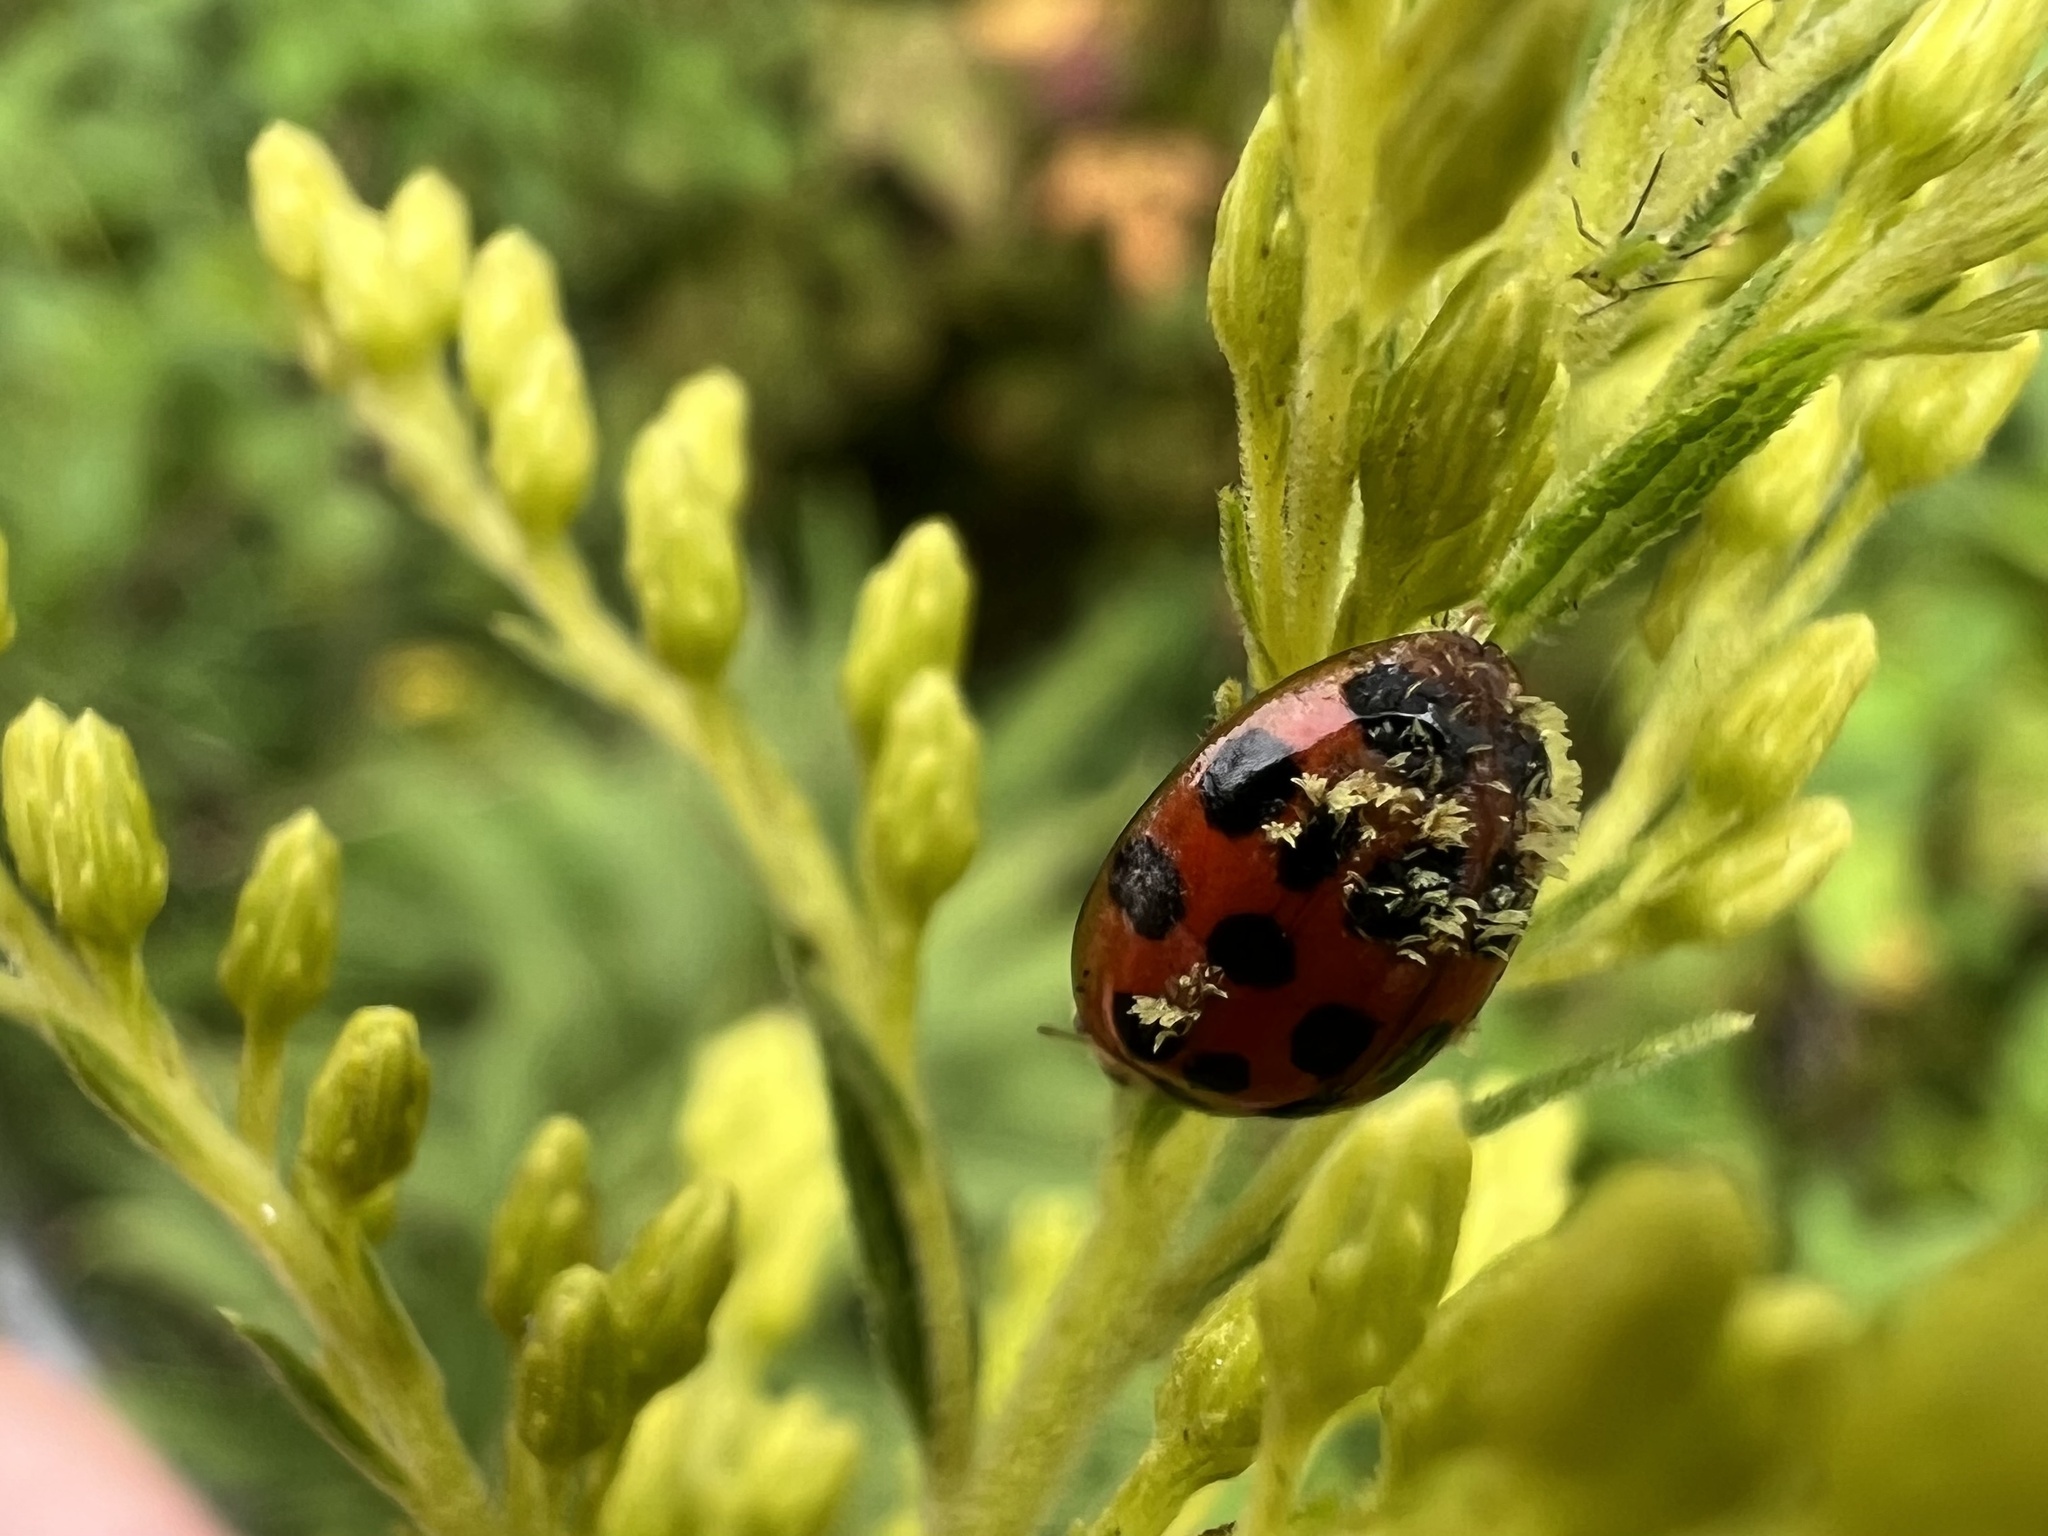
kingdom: Fungi
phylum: Ascomycota
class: Laboulbeniomycetes
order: Laboulbeniales
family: Laboulbeniaceae
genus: Hesperomyces
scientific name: Hesperomyces harmoniae
